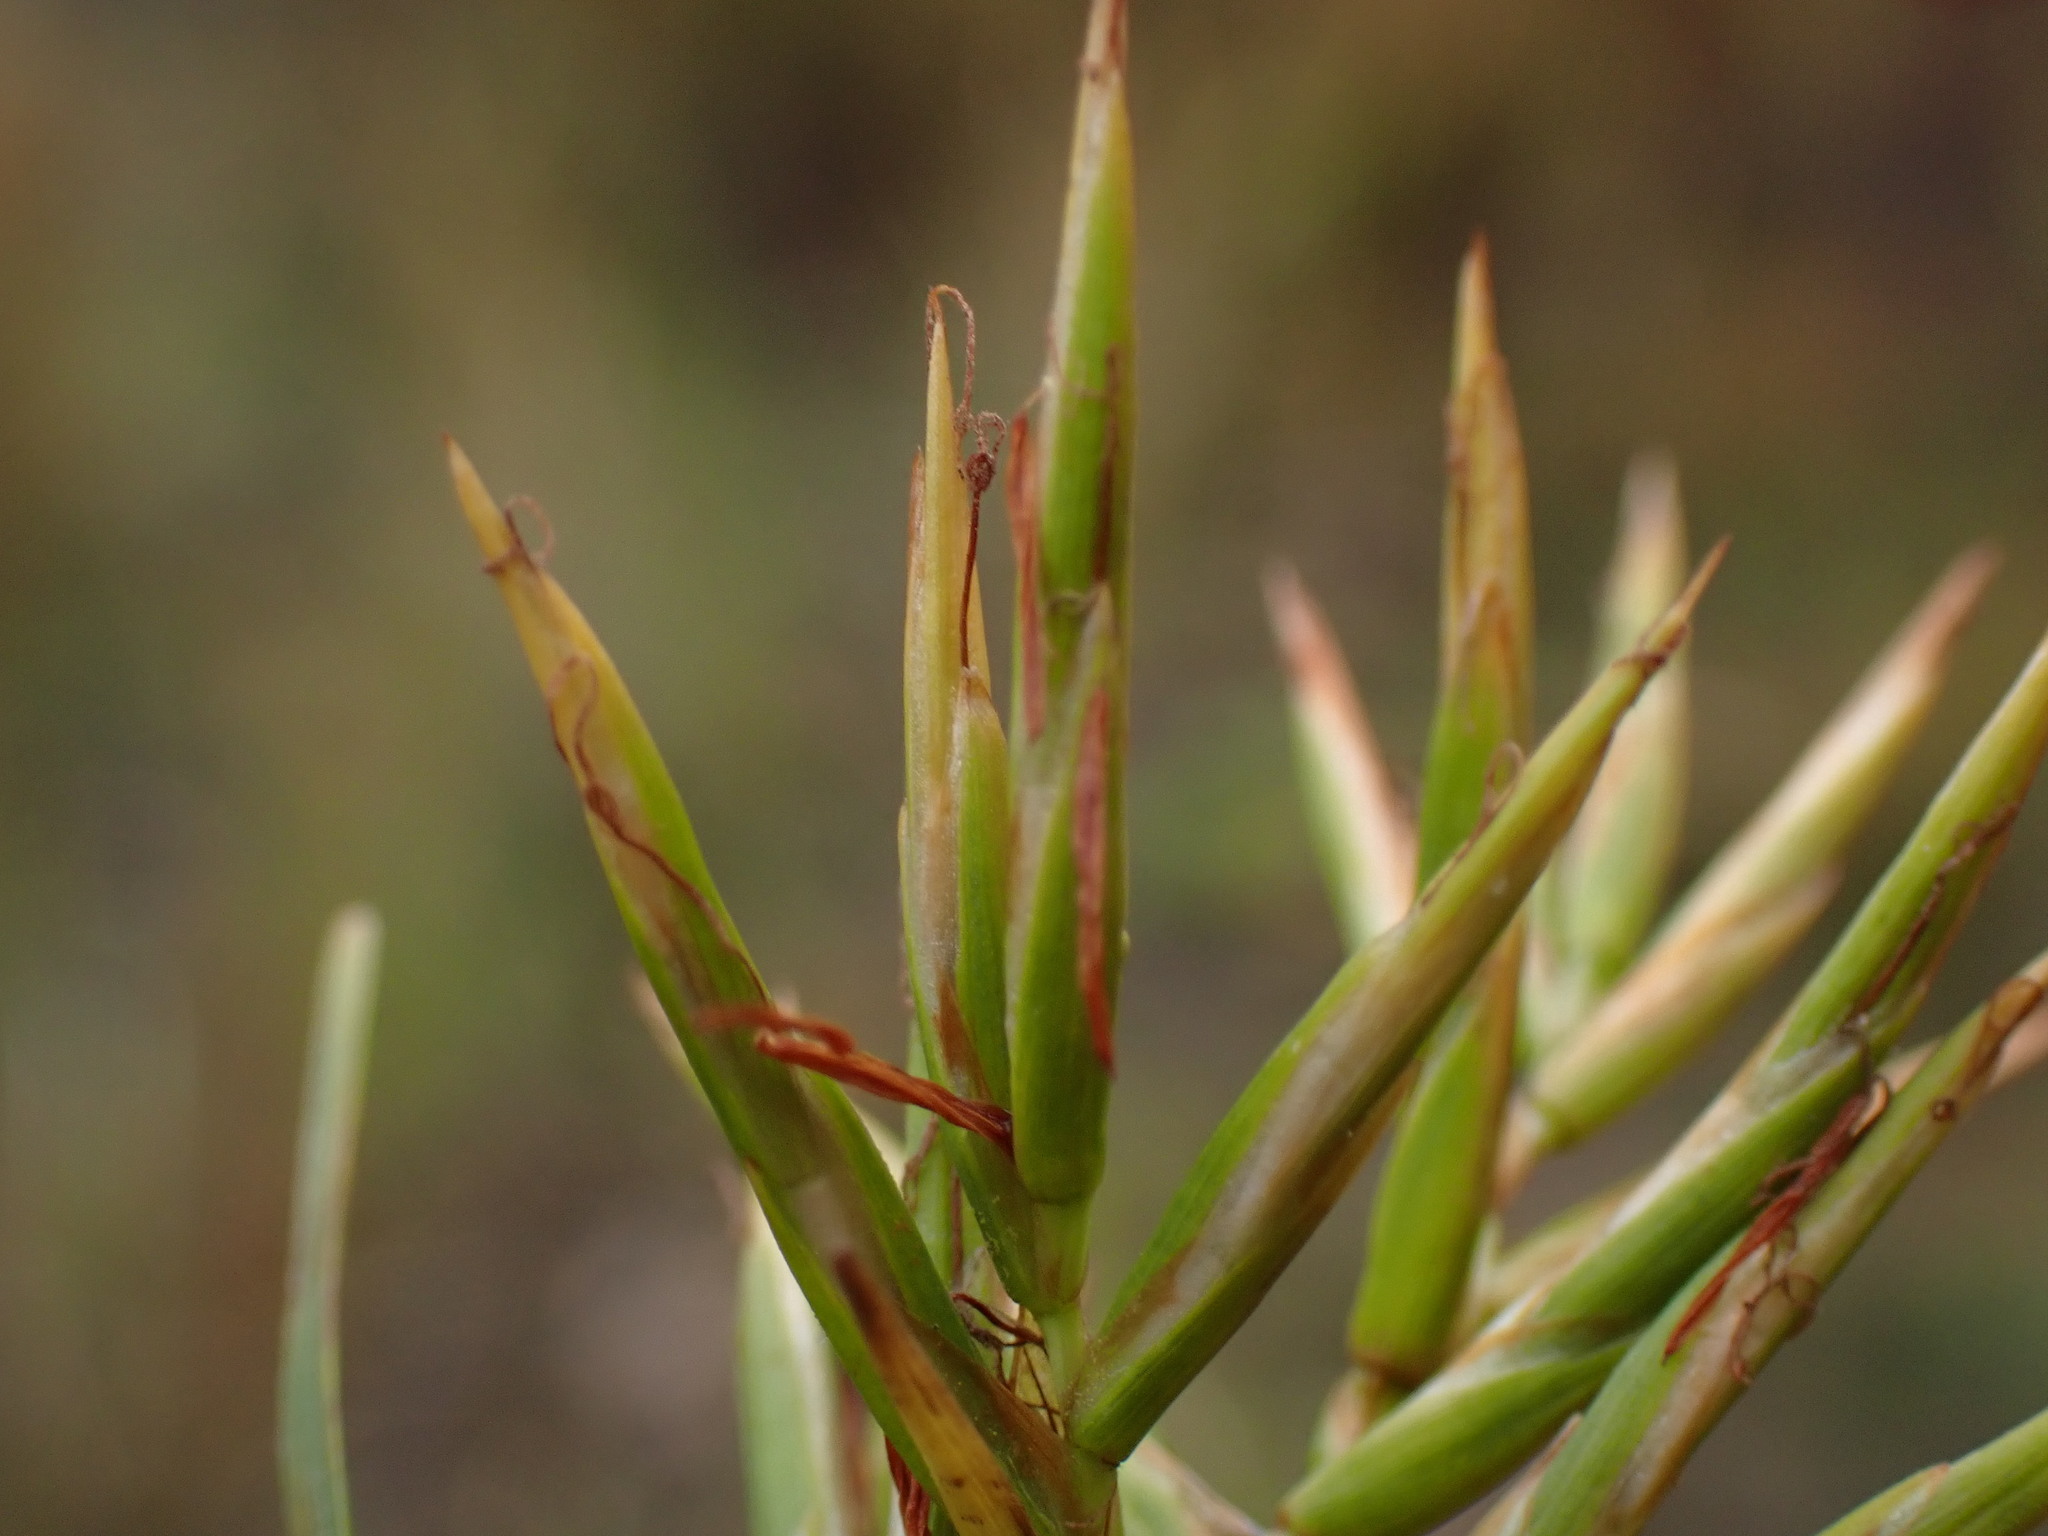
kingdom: Plantae
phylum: Tracheophyta
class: Liliopsida
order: Poales
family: Cyperaceae
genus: Dulichium
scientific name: Dulichium arundinaceum
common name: Three-way sedge
